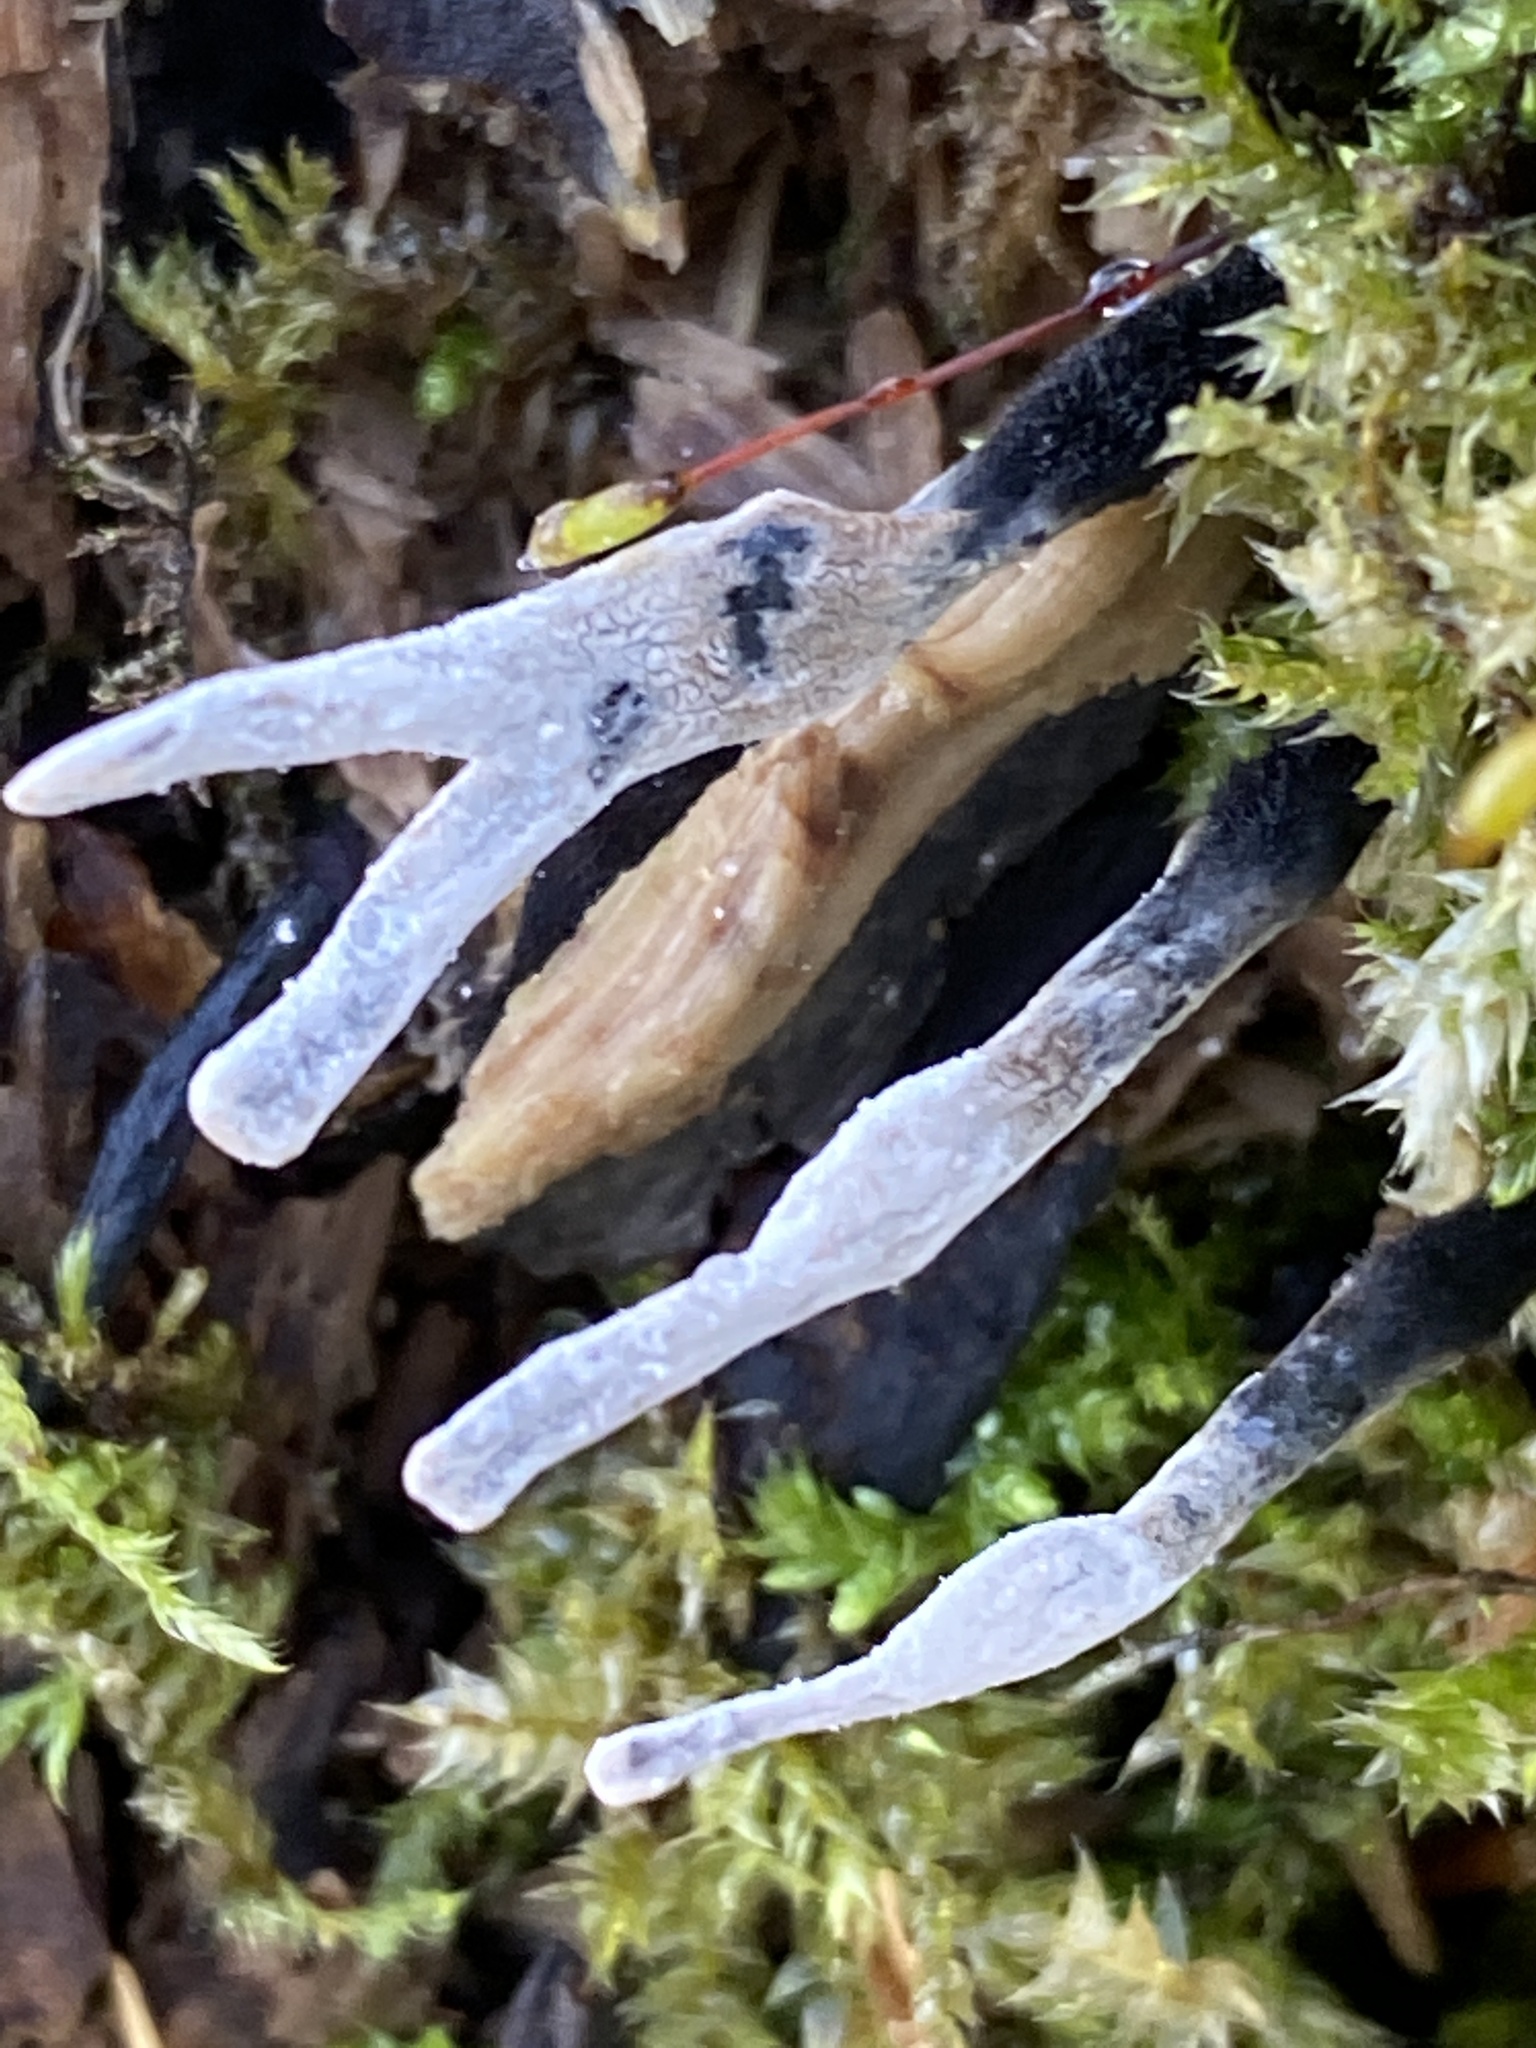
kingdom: Fungi
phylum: Ascomycota
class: Sordariomycetes
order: Xylariales
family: Xylariaceae
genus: Xylaria
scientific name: Xylaria hypoxylon
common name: Candle-snuff fungus
